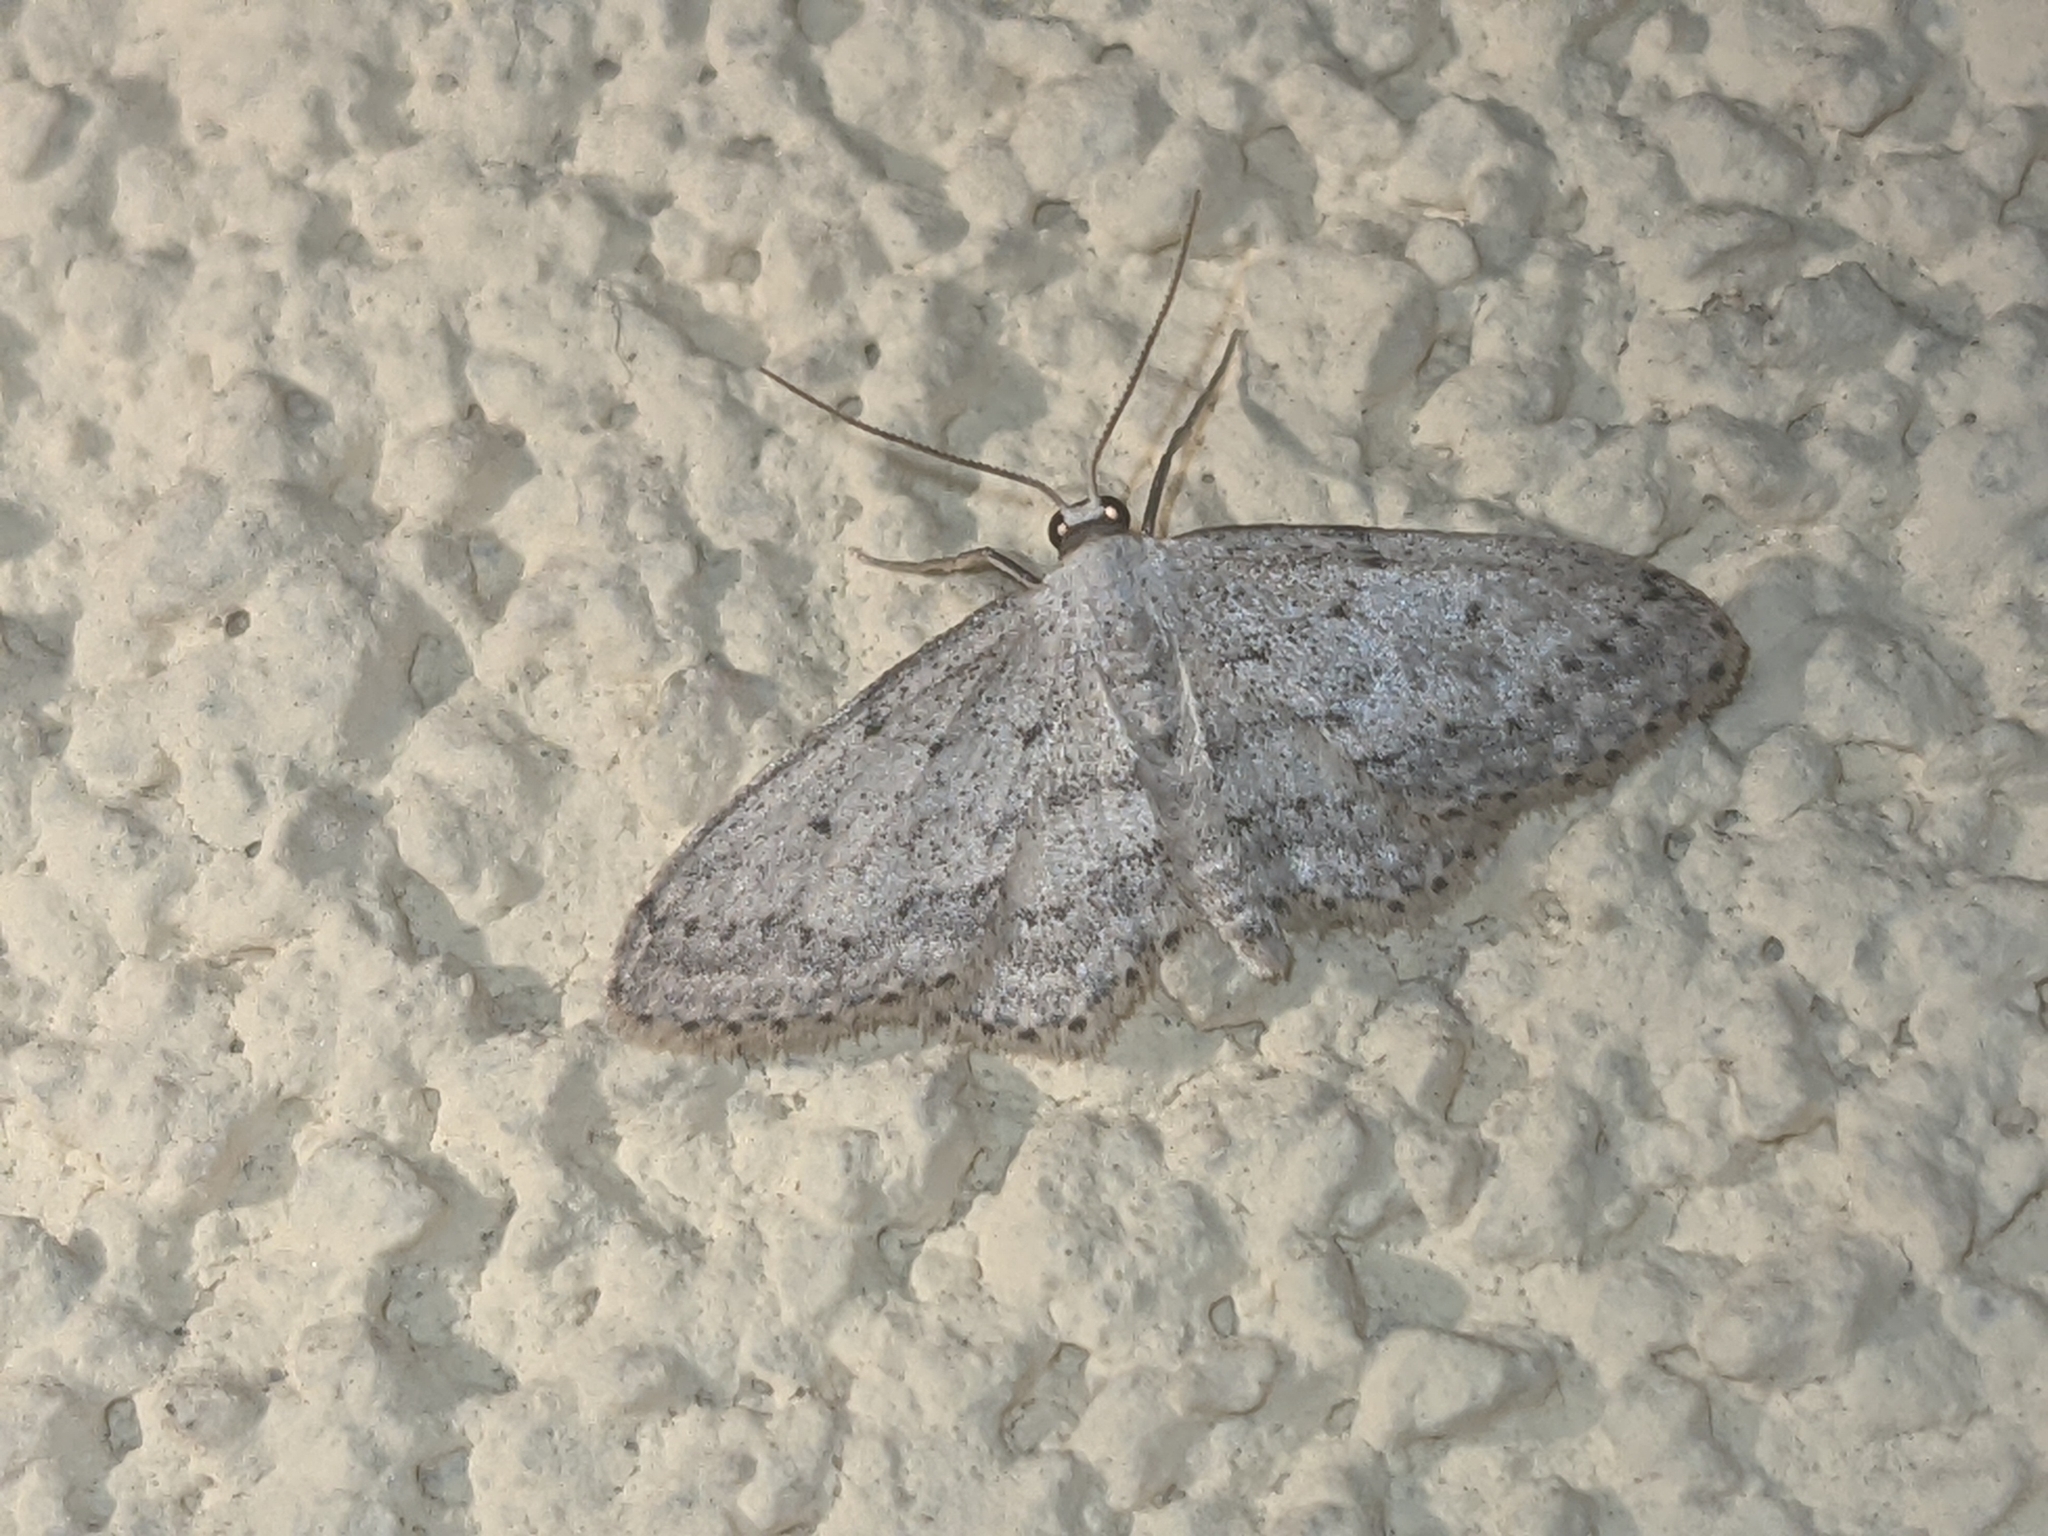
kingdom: Animalia
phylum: Arthropoda
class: Insecta
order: Lepidoptera
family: Geometridae
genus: Idaea
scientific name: Idaea seriata
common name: Small dusty wave
